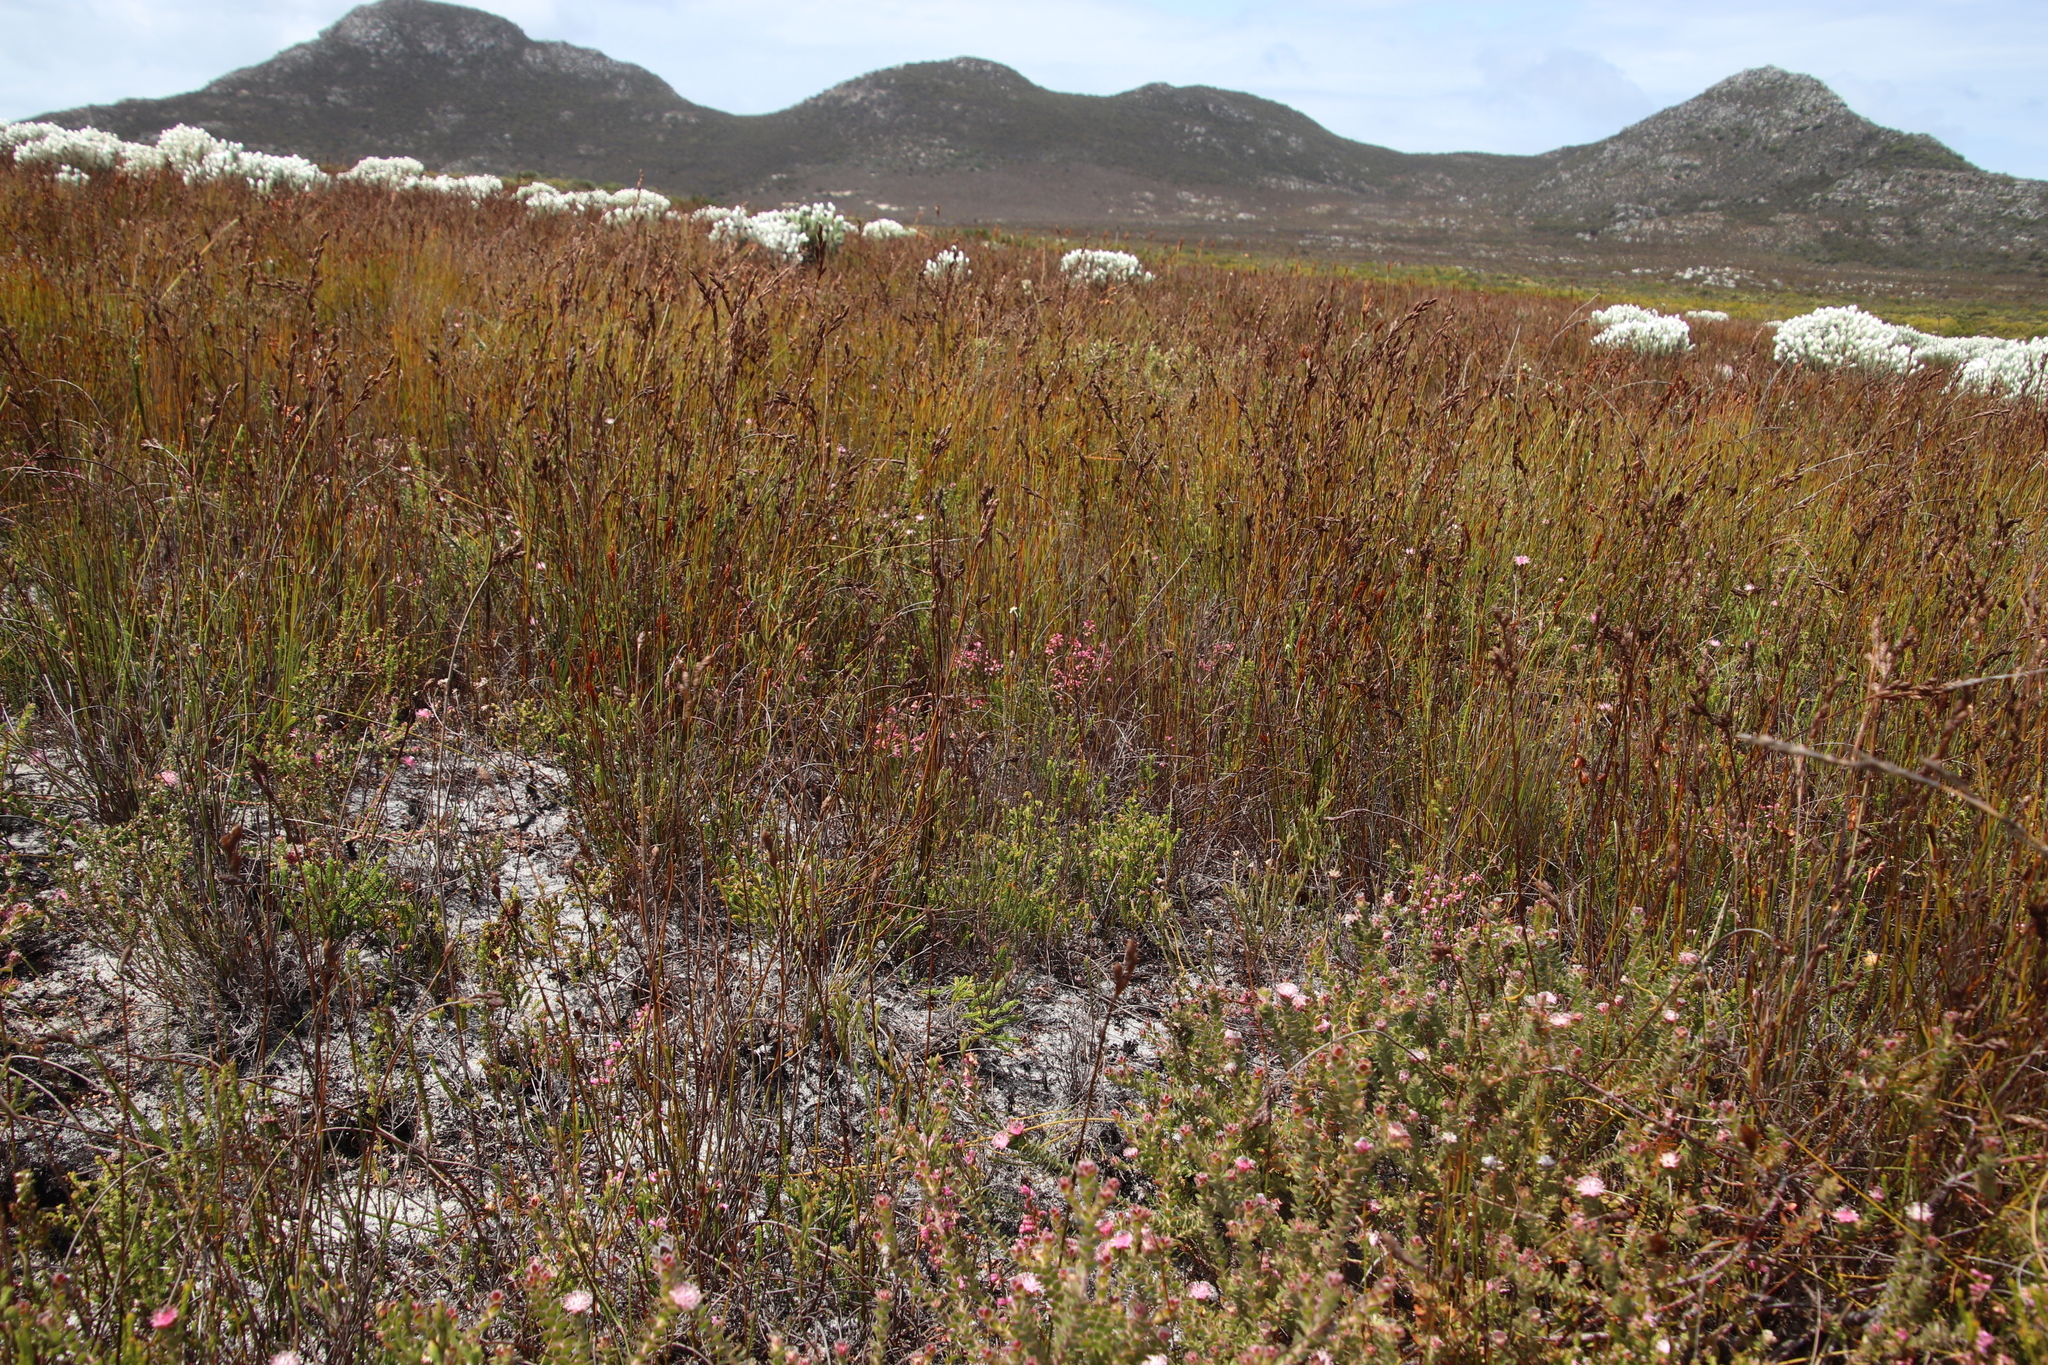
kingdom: Plantae
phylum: Tracheophyta
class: Magnoliopsida
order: Ericales
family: Ericaceae
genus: Erica
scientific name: Erica lasciva
